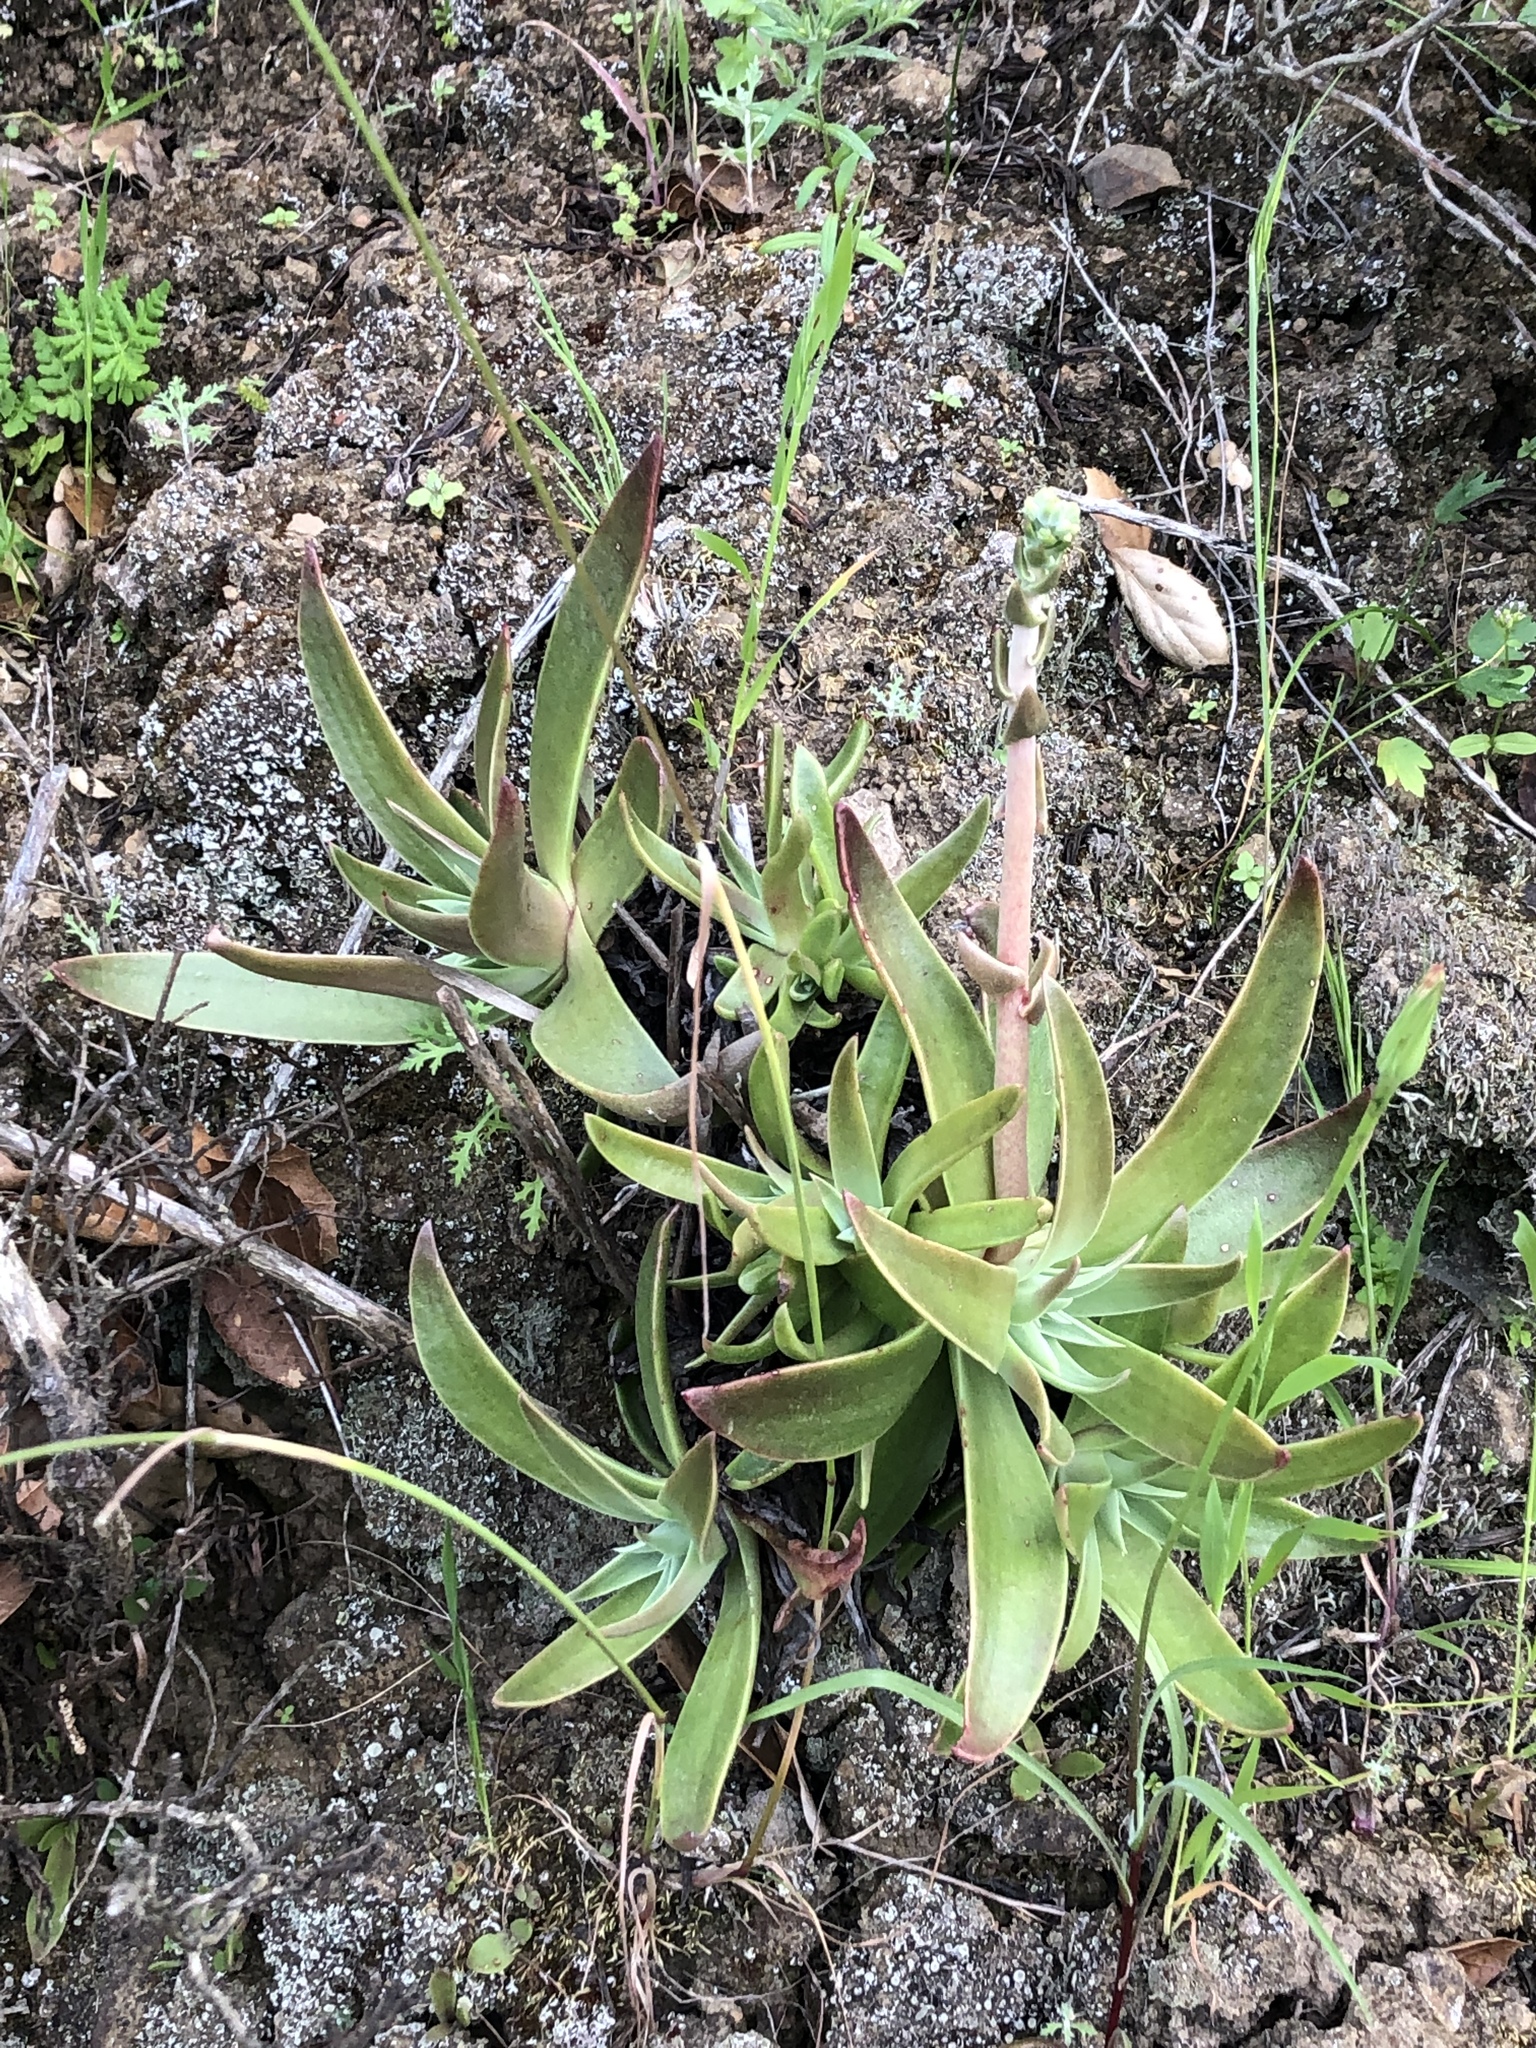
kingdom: Plantae
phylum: Tracheophyta
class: Magnoliopsida
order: Saxifragales
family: Crassulaceae
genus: Dudleya
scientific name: Dudleya lanceolata
